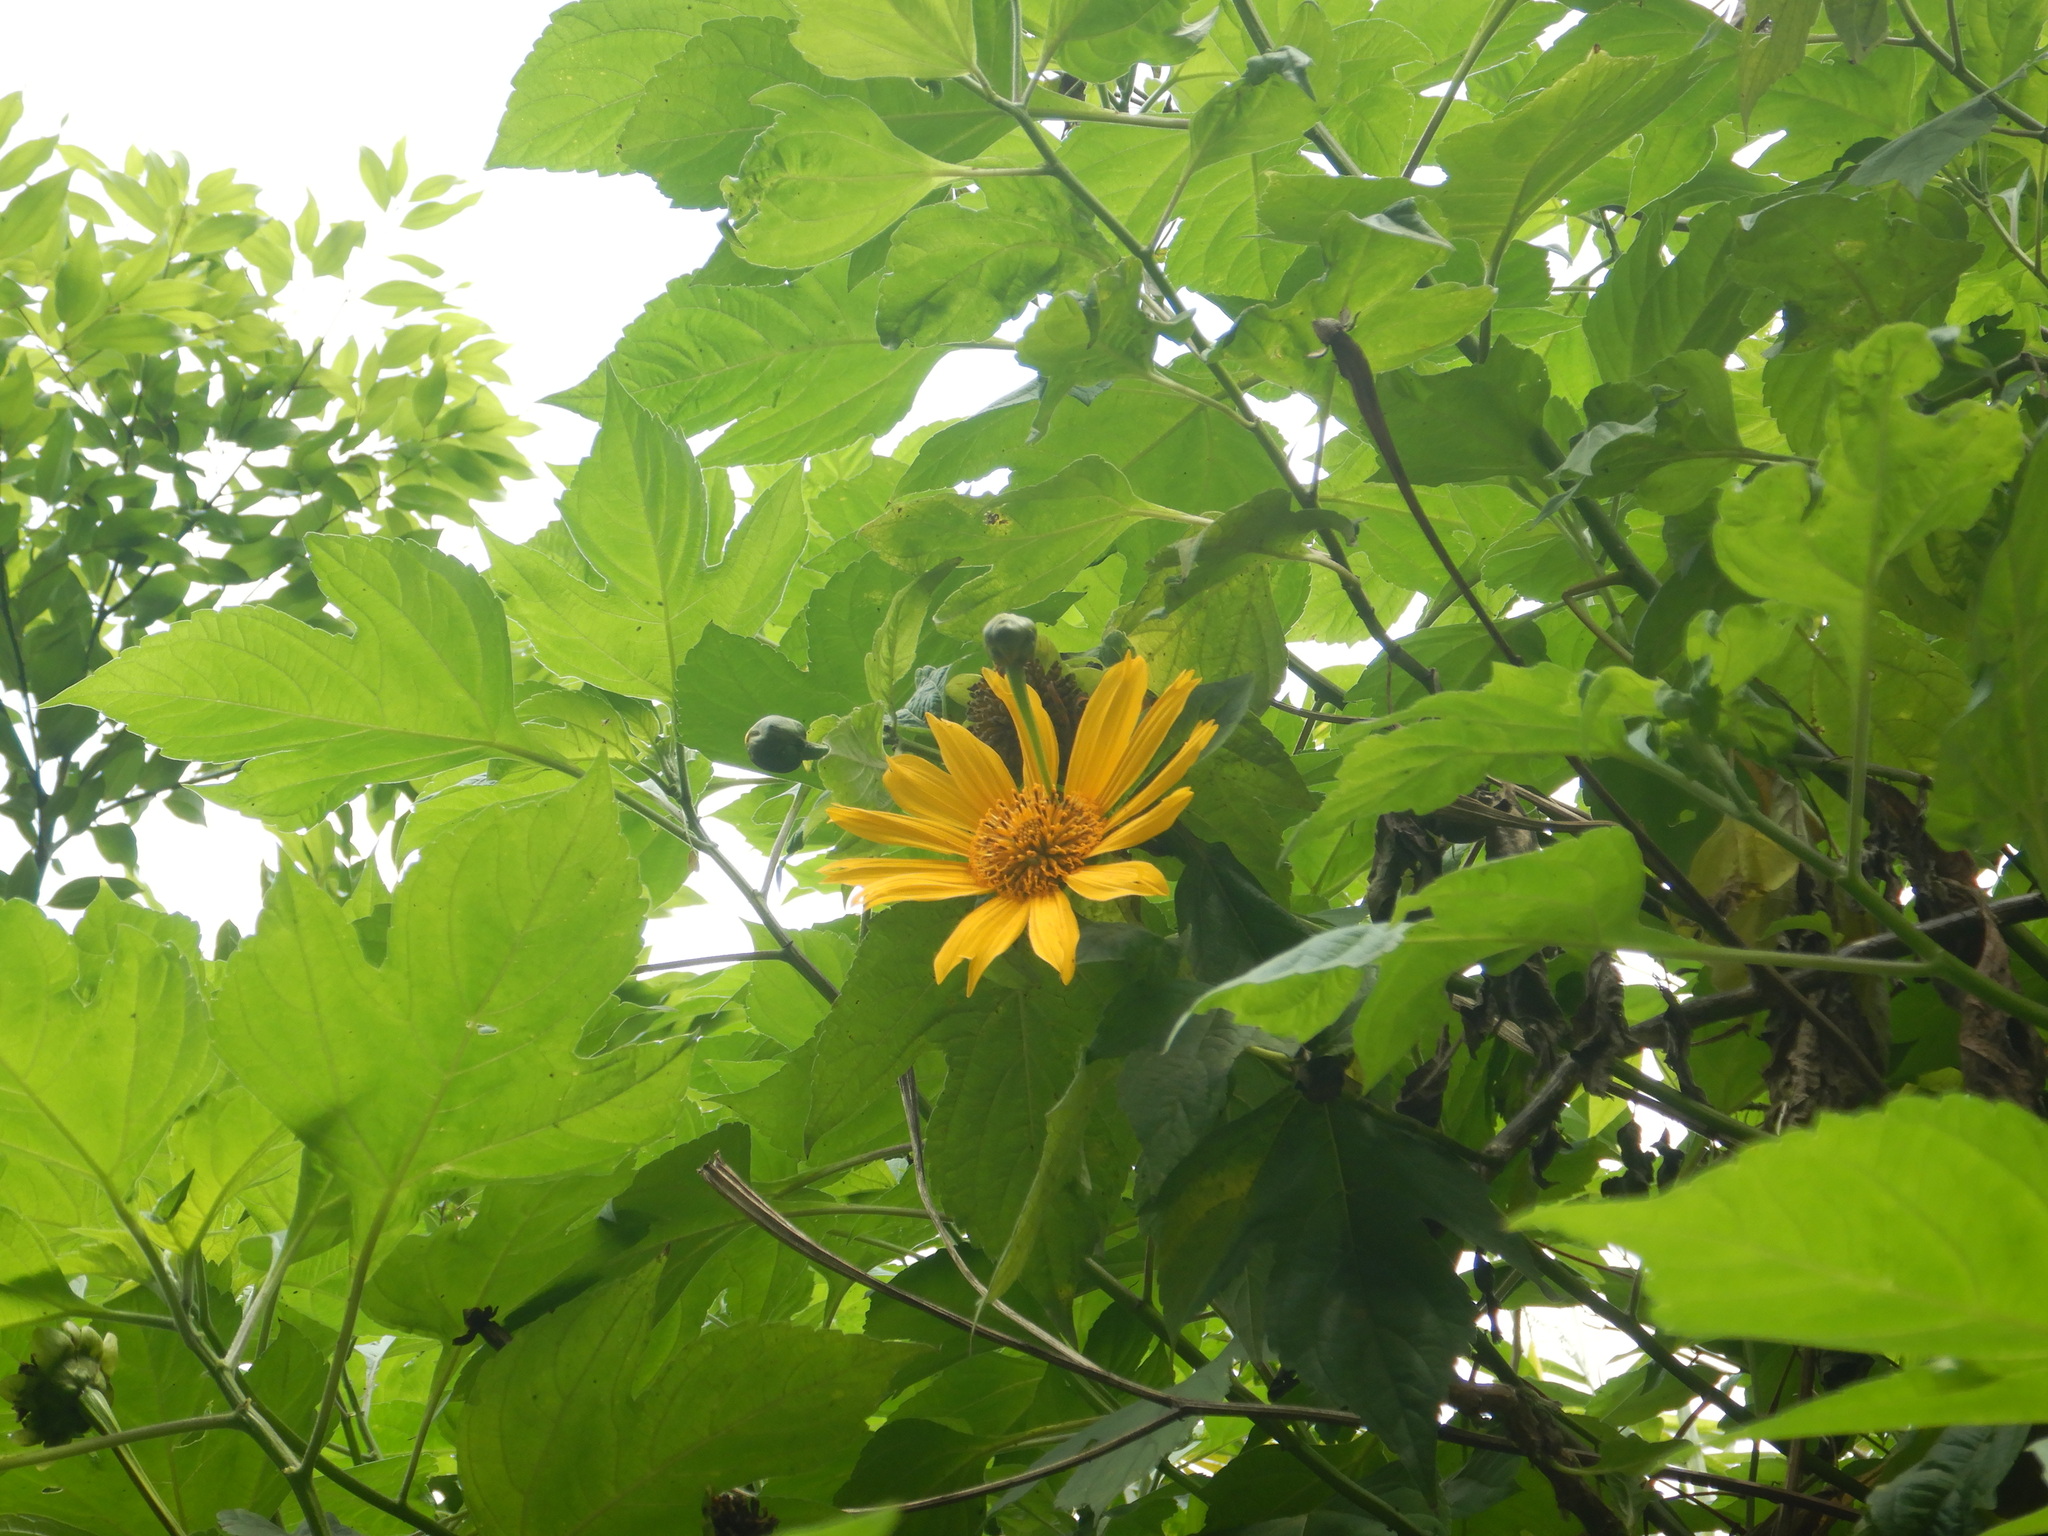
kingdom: Plantae
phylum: Tracheophyta
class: Magnoliopsida
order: Asterales
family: Asteraceae
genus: Tithonia
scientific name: Tithonia diversifolia
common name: Tree marigold
